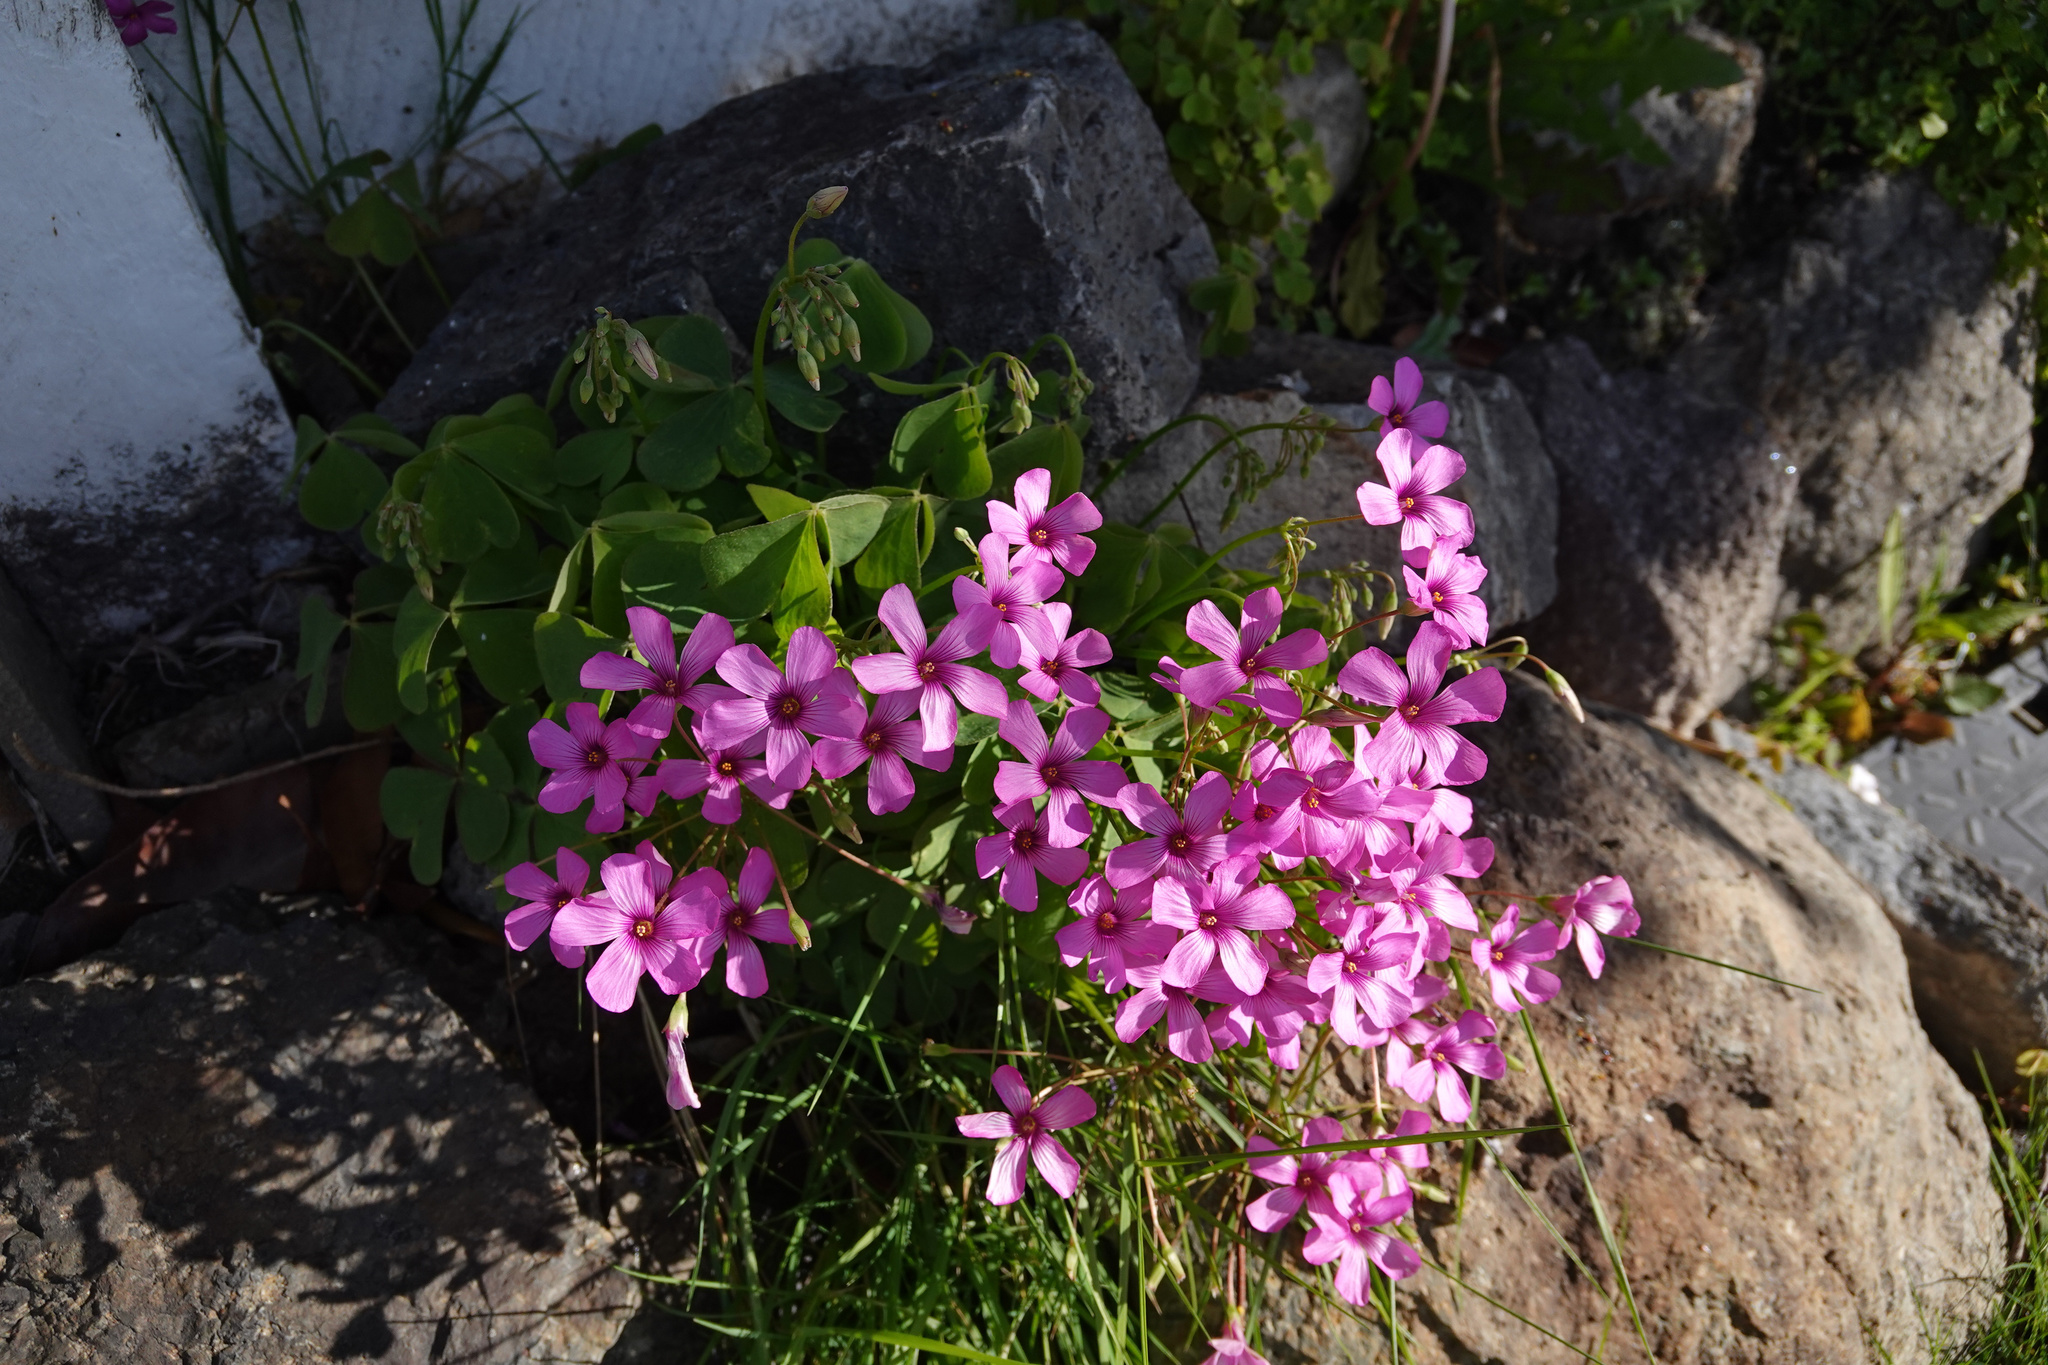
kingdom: Plantae
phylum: Tracheophyta
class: Magnoliopsida
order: Oxalidales
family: Oxalidaceae
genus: Oxalis
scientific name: Oxalis articulata
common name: Pink-sorrel
